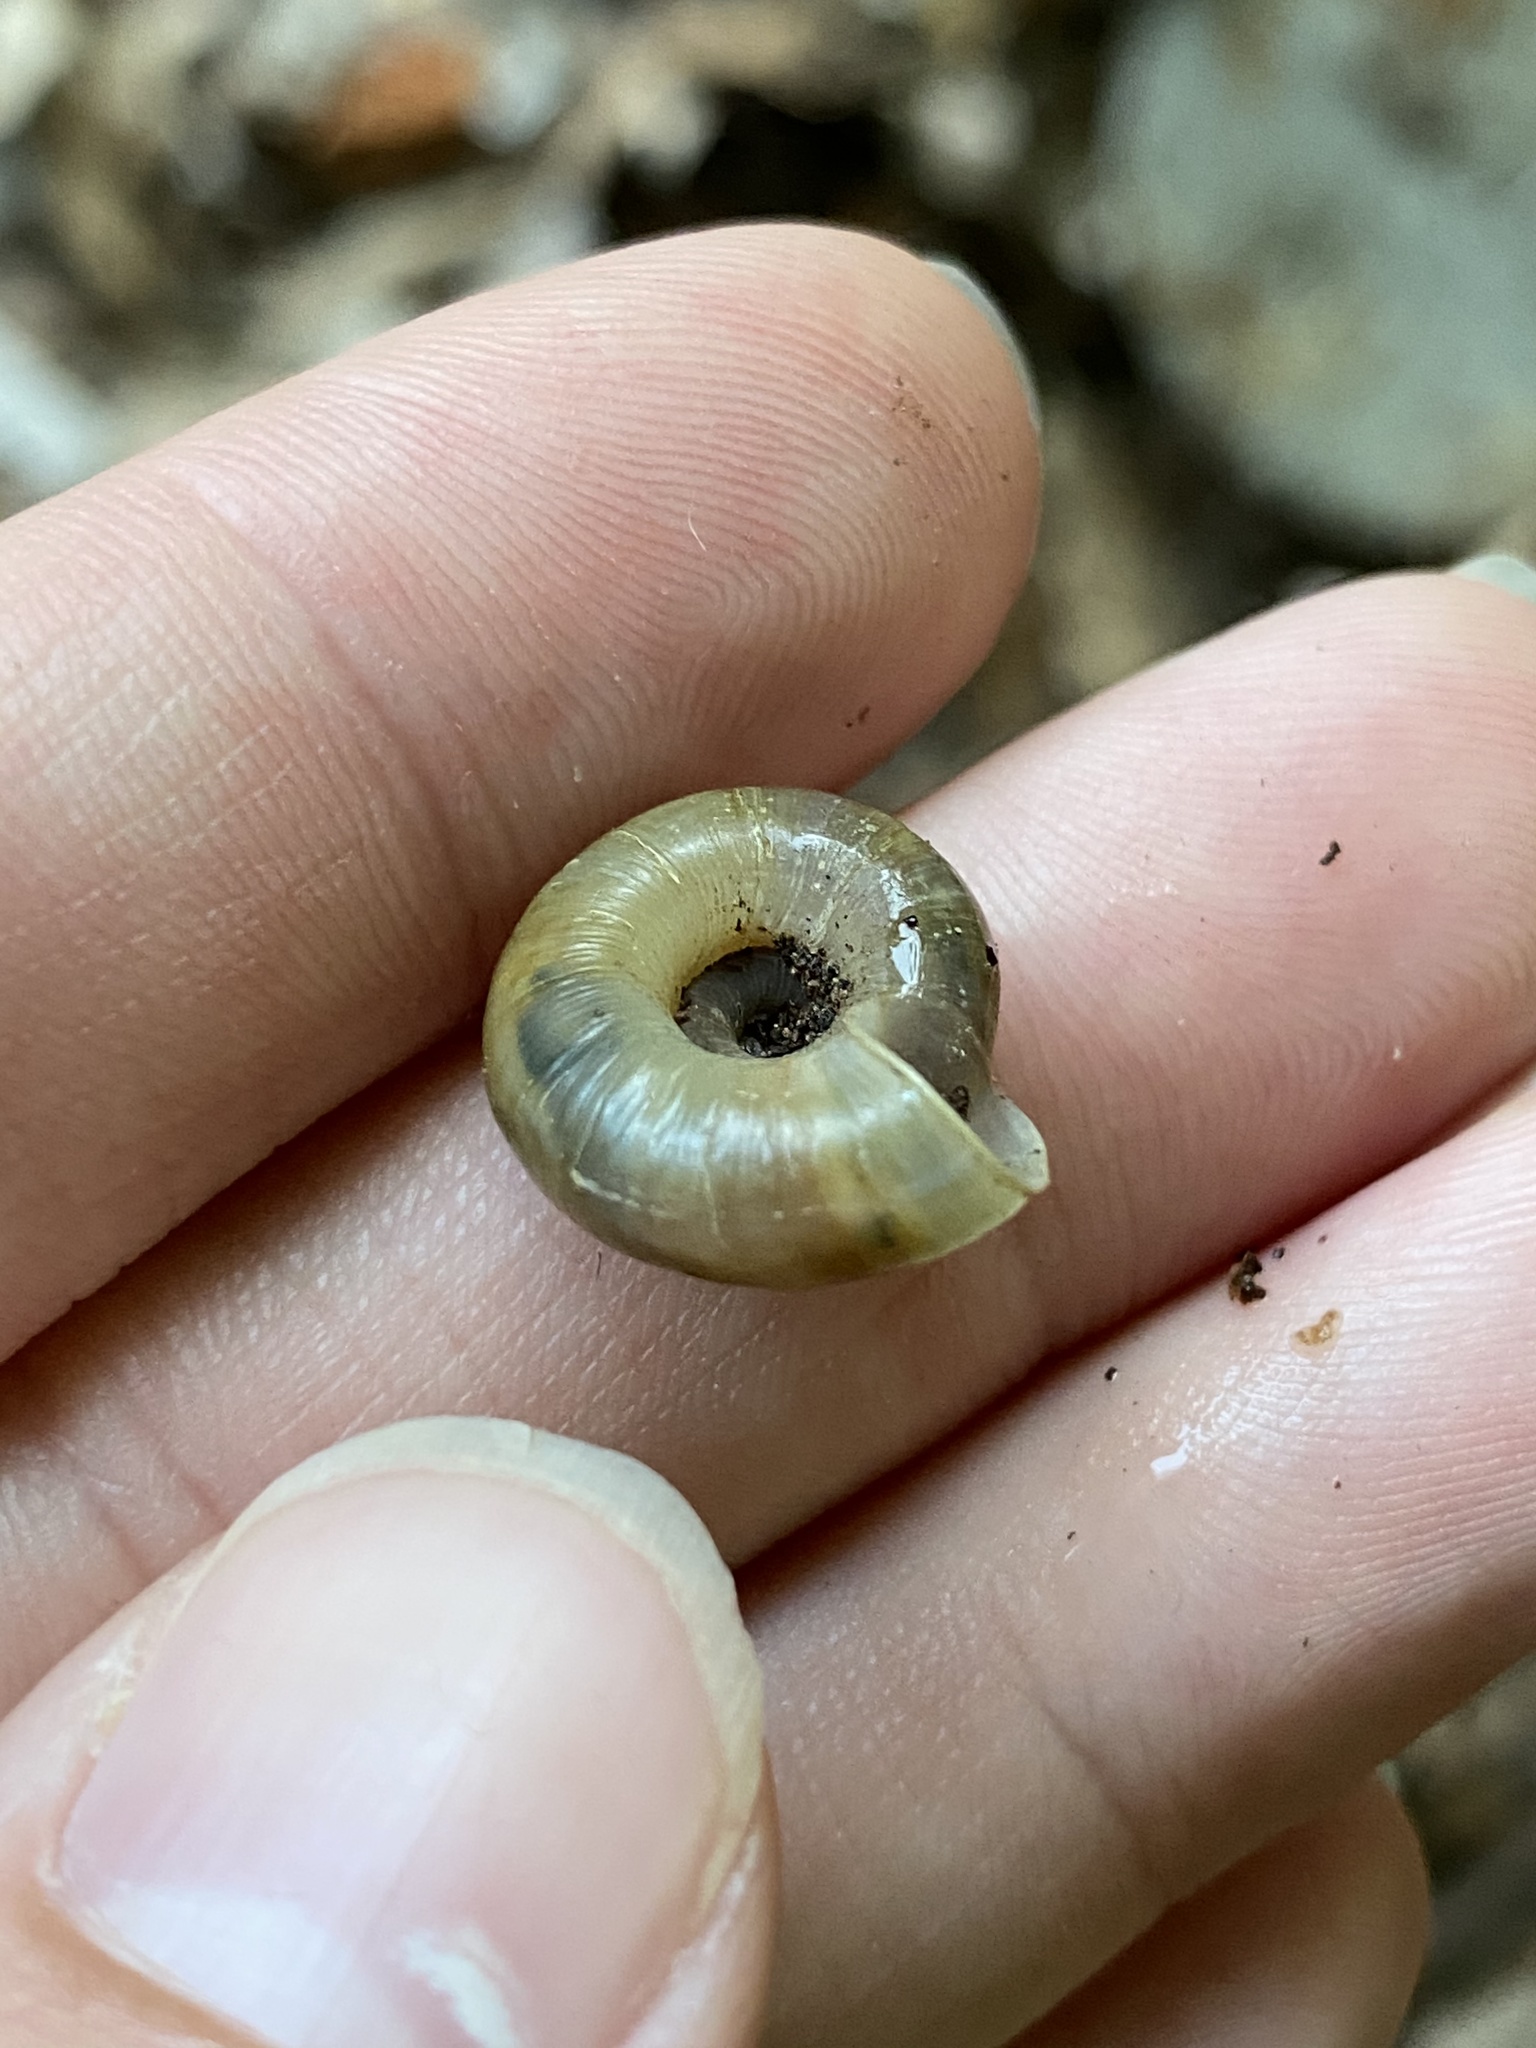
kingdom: Animalia
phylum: Mollusca
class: Gastropoda
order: Stylommatophora
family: Haplotrematidae
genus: Haplotrema
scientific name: Haplotrema concavum
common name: Gray-foot lancetooth
